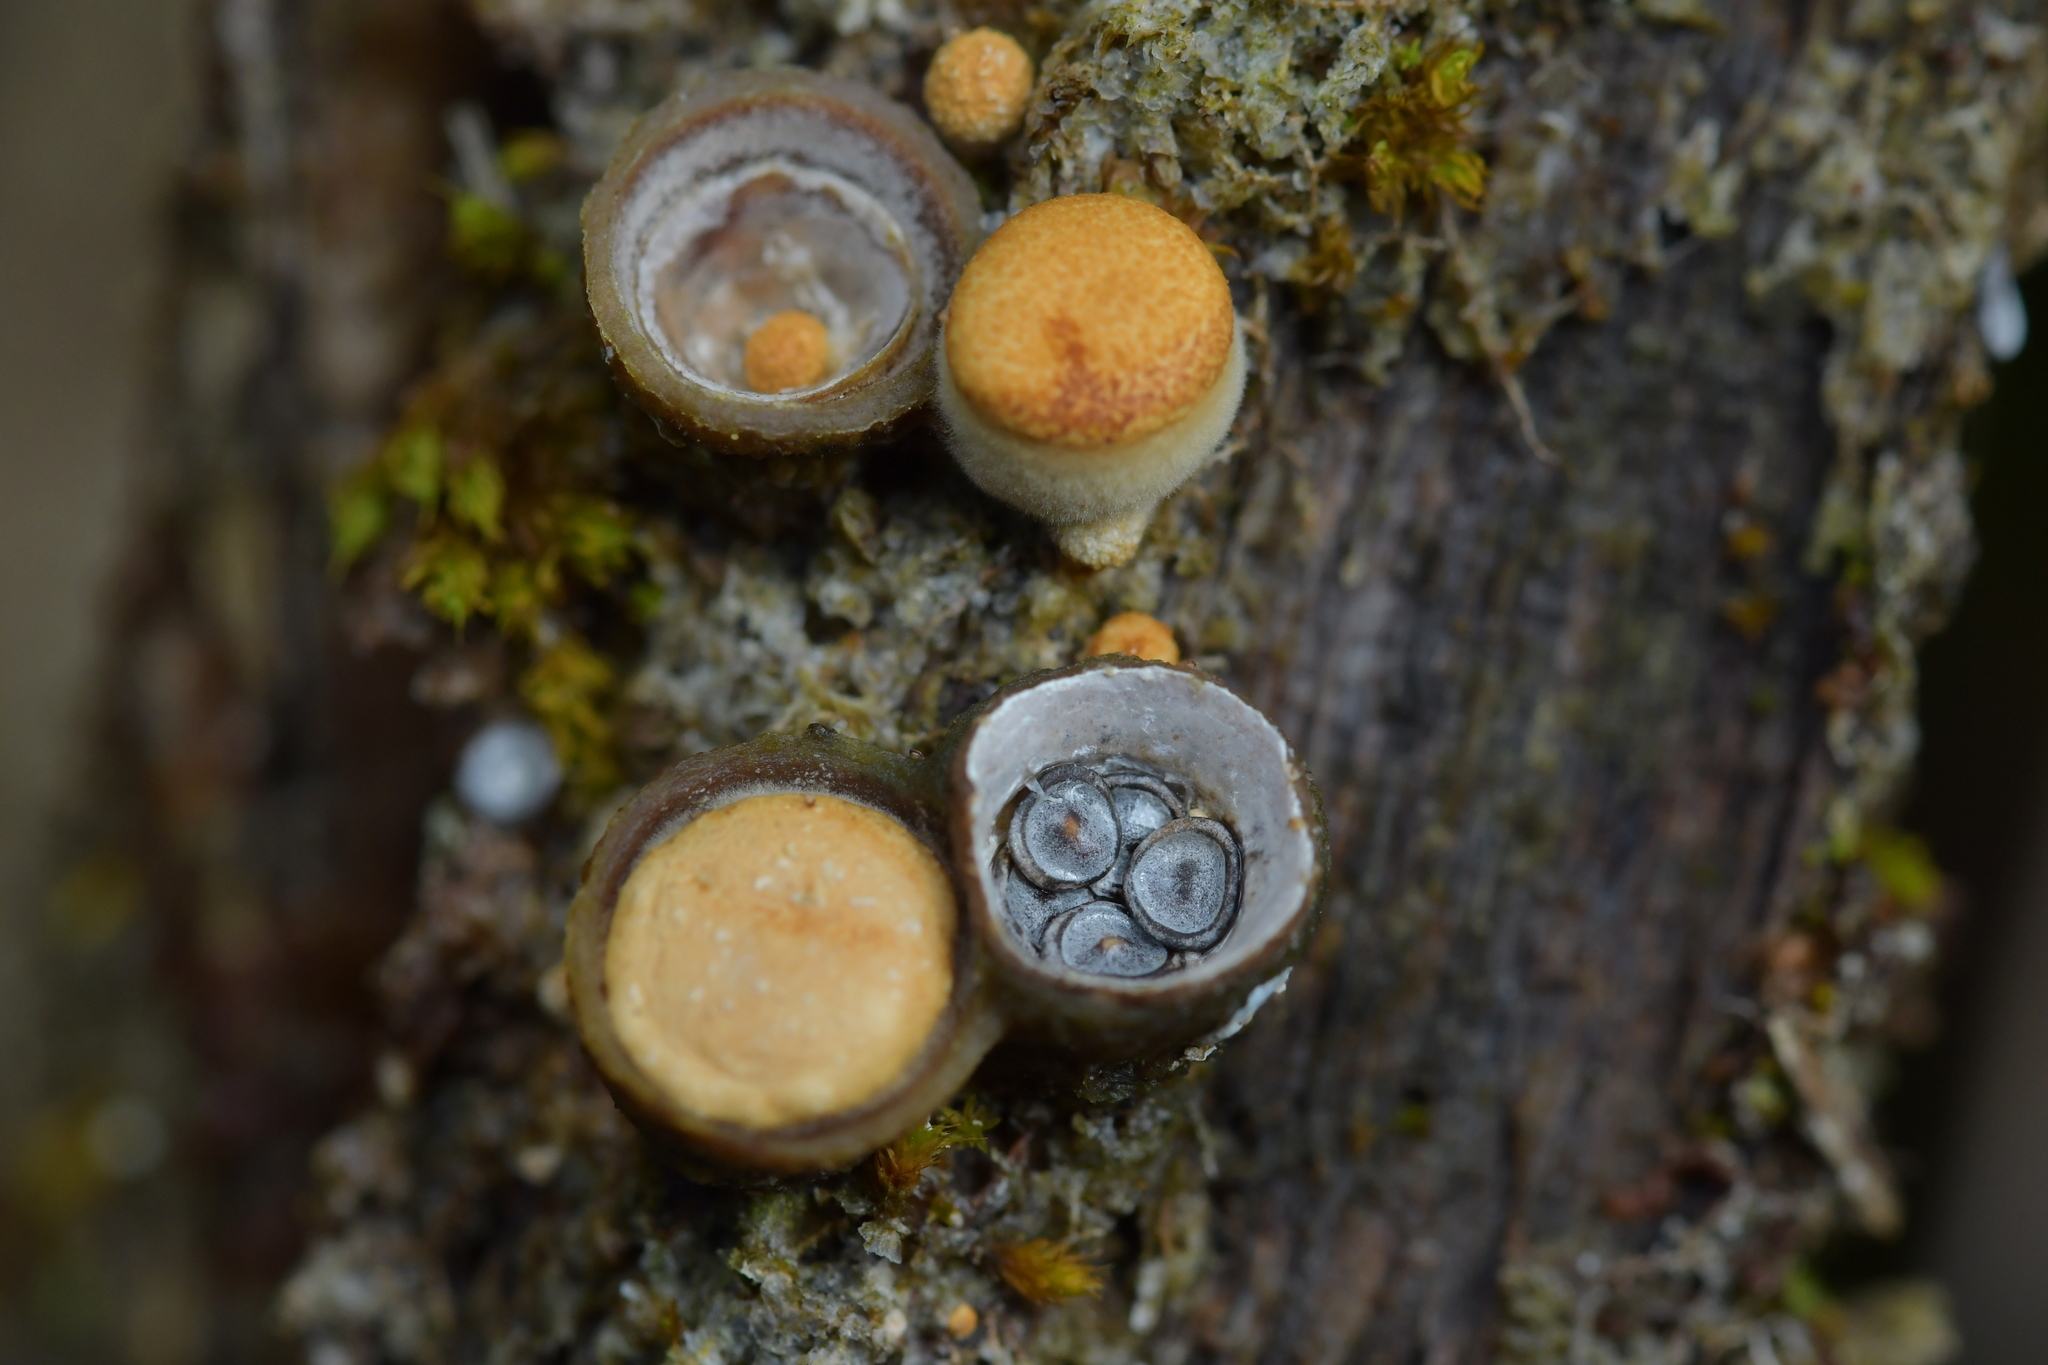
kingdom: Fungi
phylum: Basidiomycota
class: Agaricomycetes
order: Agaricales
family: Nidulariaceae
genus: Crucibulum
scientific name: Crucibulum simile
